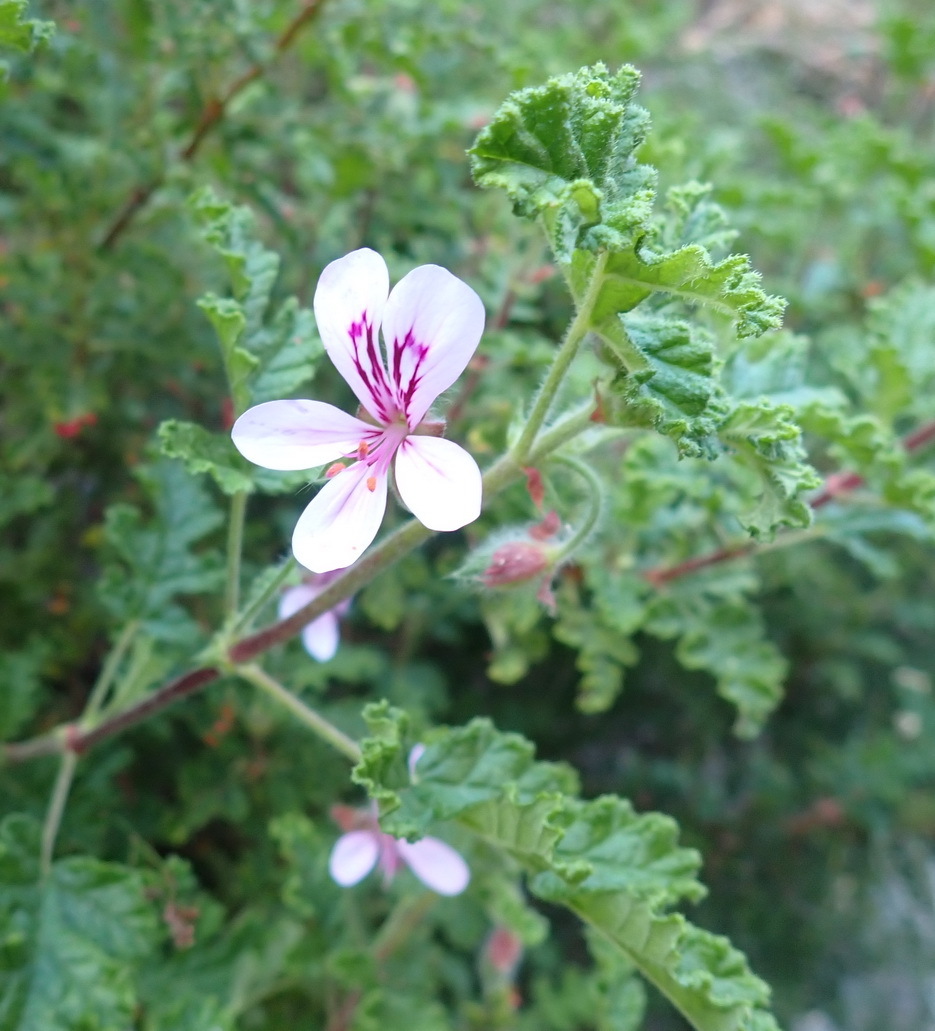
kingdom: Plantae
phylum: Tracheophyta
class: Magnoliopsida
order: Geraniales
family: Geraniaceae
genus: Pelargonium
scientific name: Pelargonium panduriforme
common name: Oakleaf garden geranium
